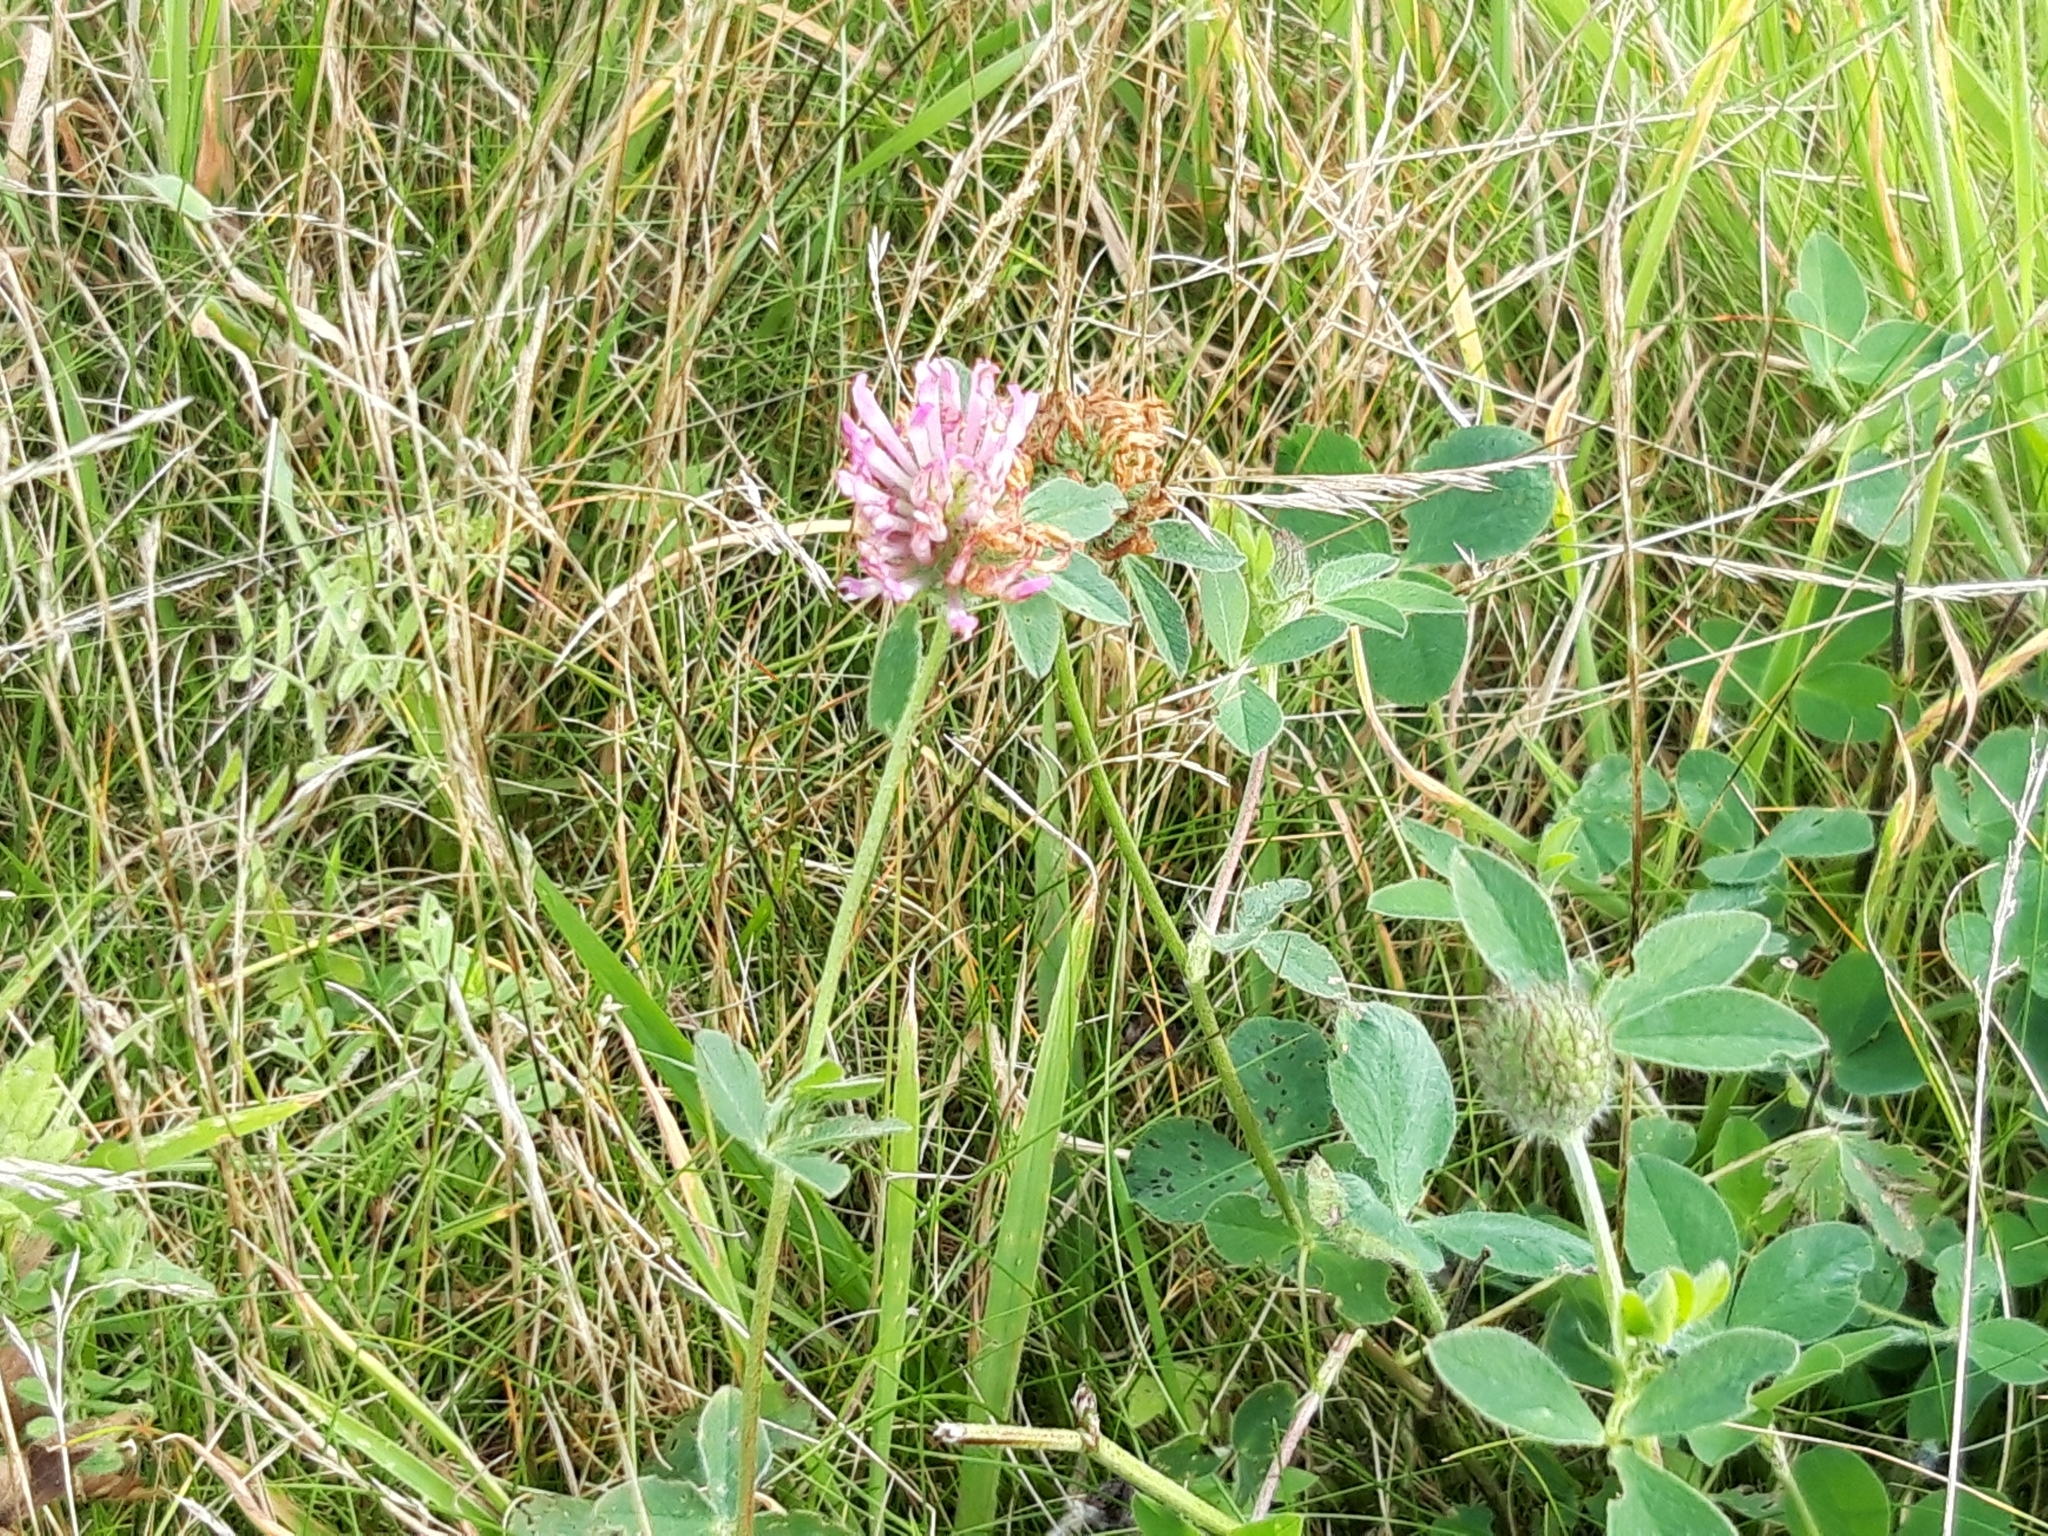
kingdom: Plantae
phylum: Tracheophyta
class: Magnoliopsida
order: Fabales
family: Fabaceae
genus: Trifolium
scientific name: Trifolium pratense
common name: Red clover
